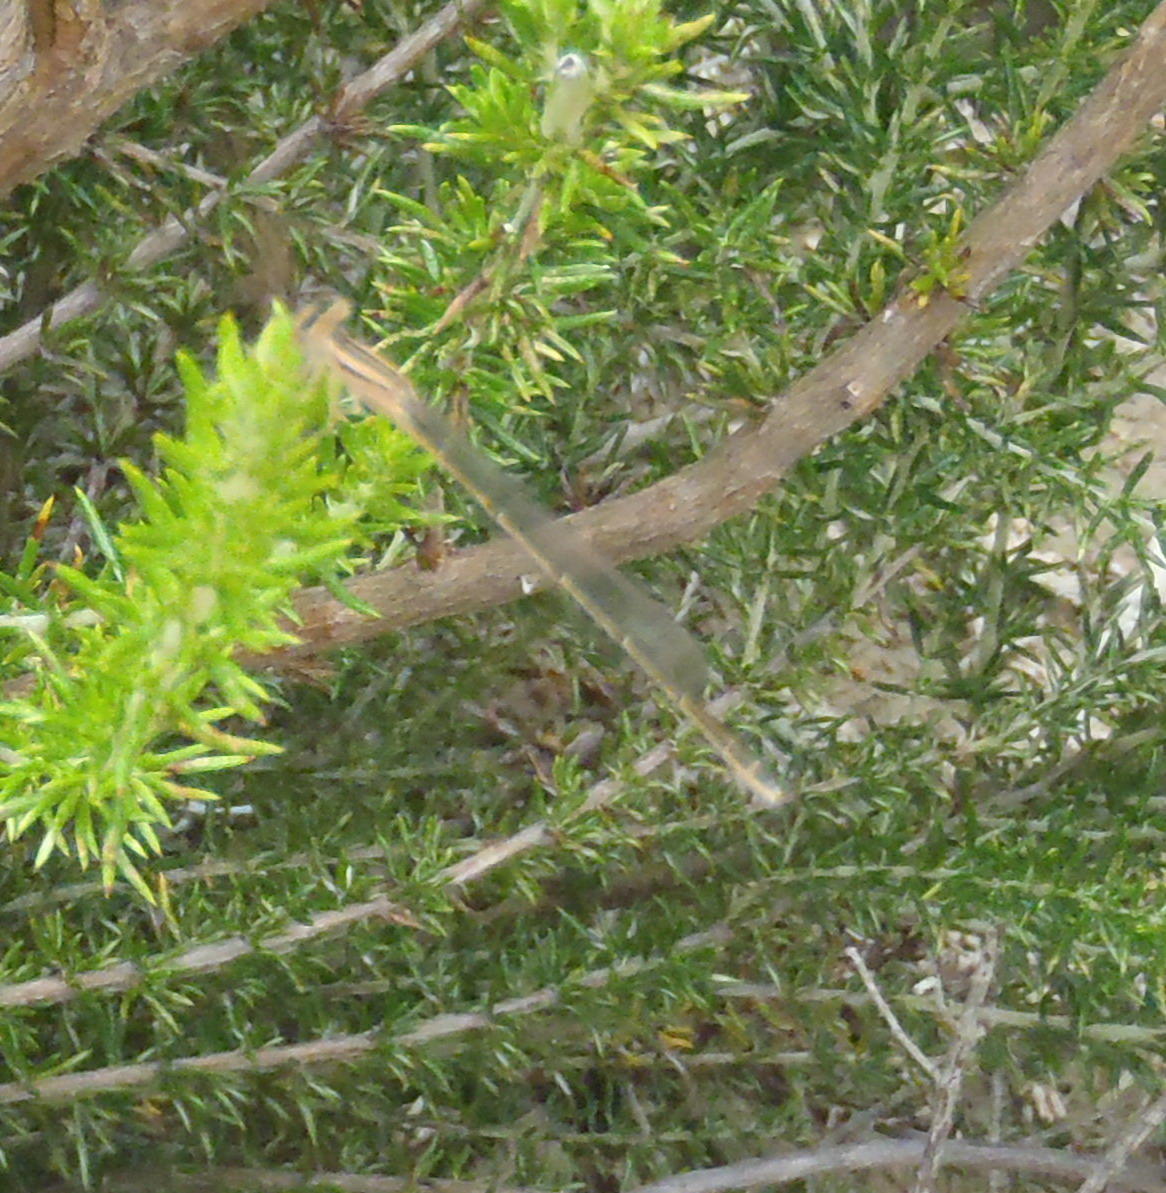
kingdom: Animalia
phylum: Arthropoda
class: Insecta
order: Odonata
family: Coenagrionidae
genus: Africallagma
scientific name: Africallagma glaucum
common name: Swamp bluet
